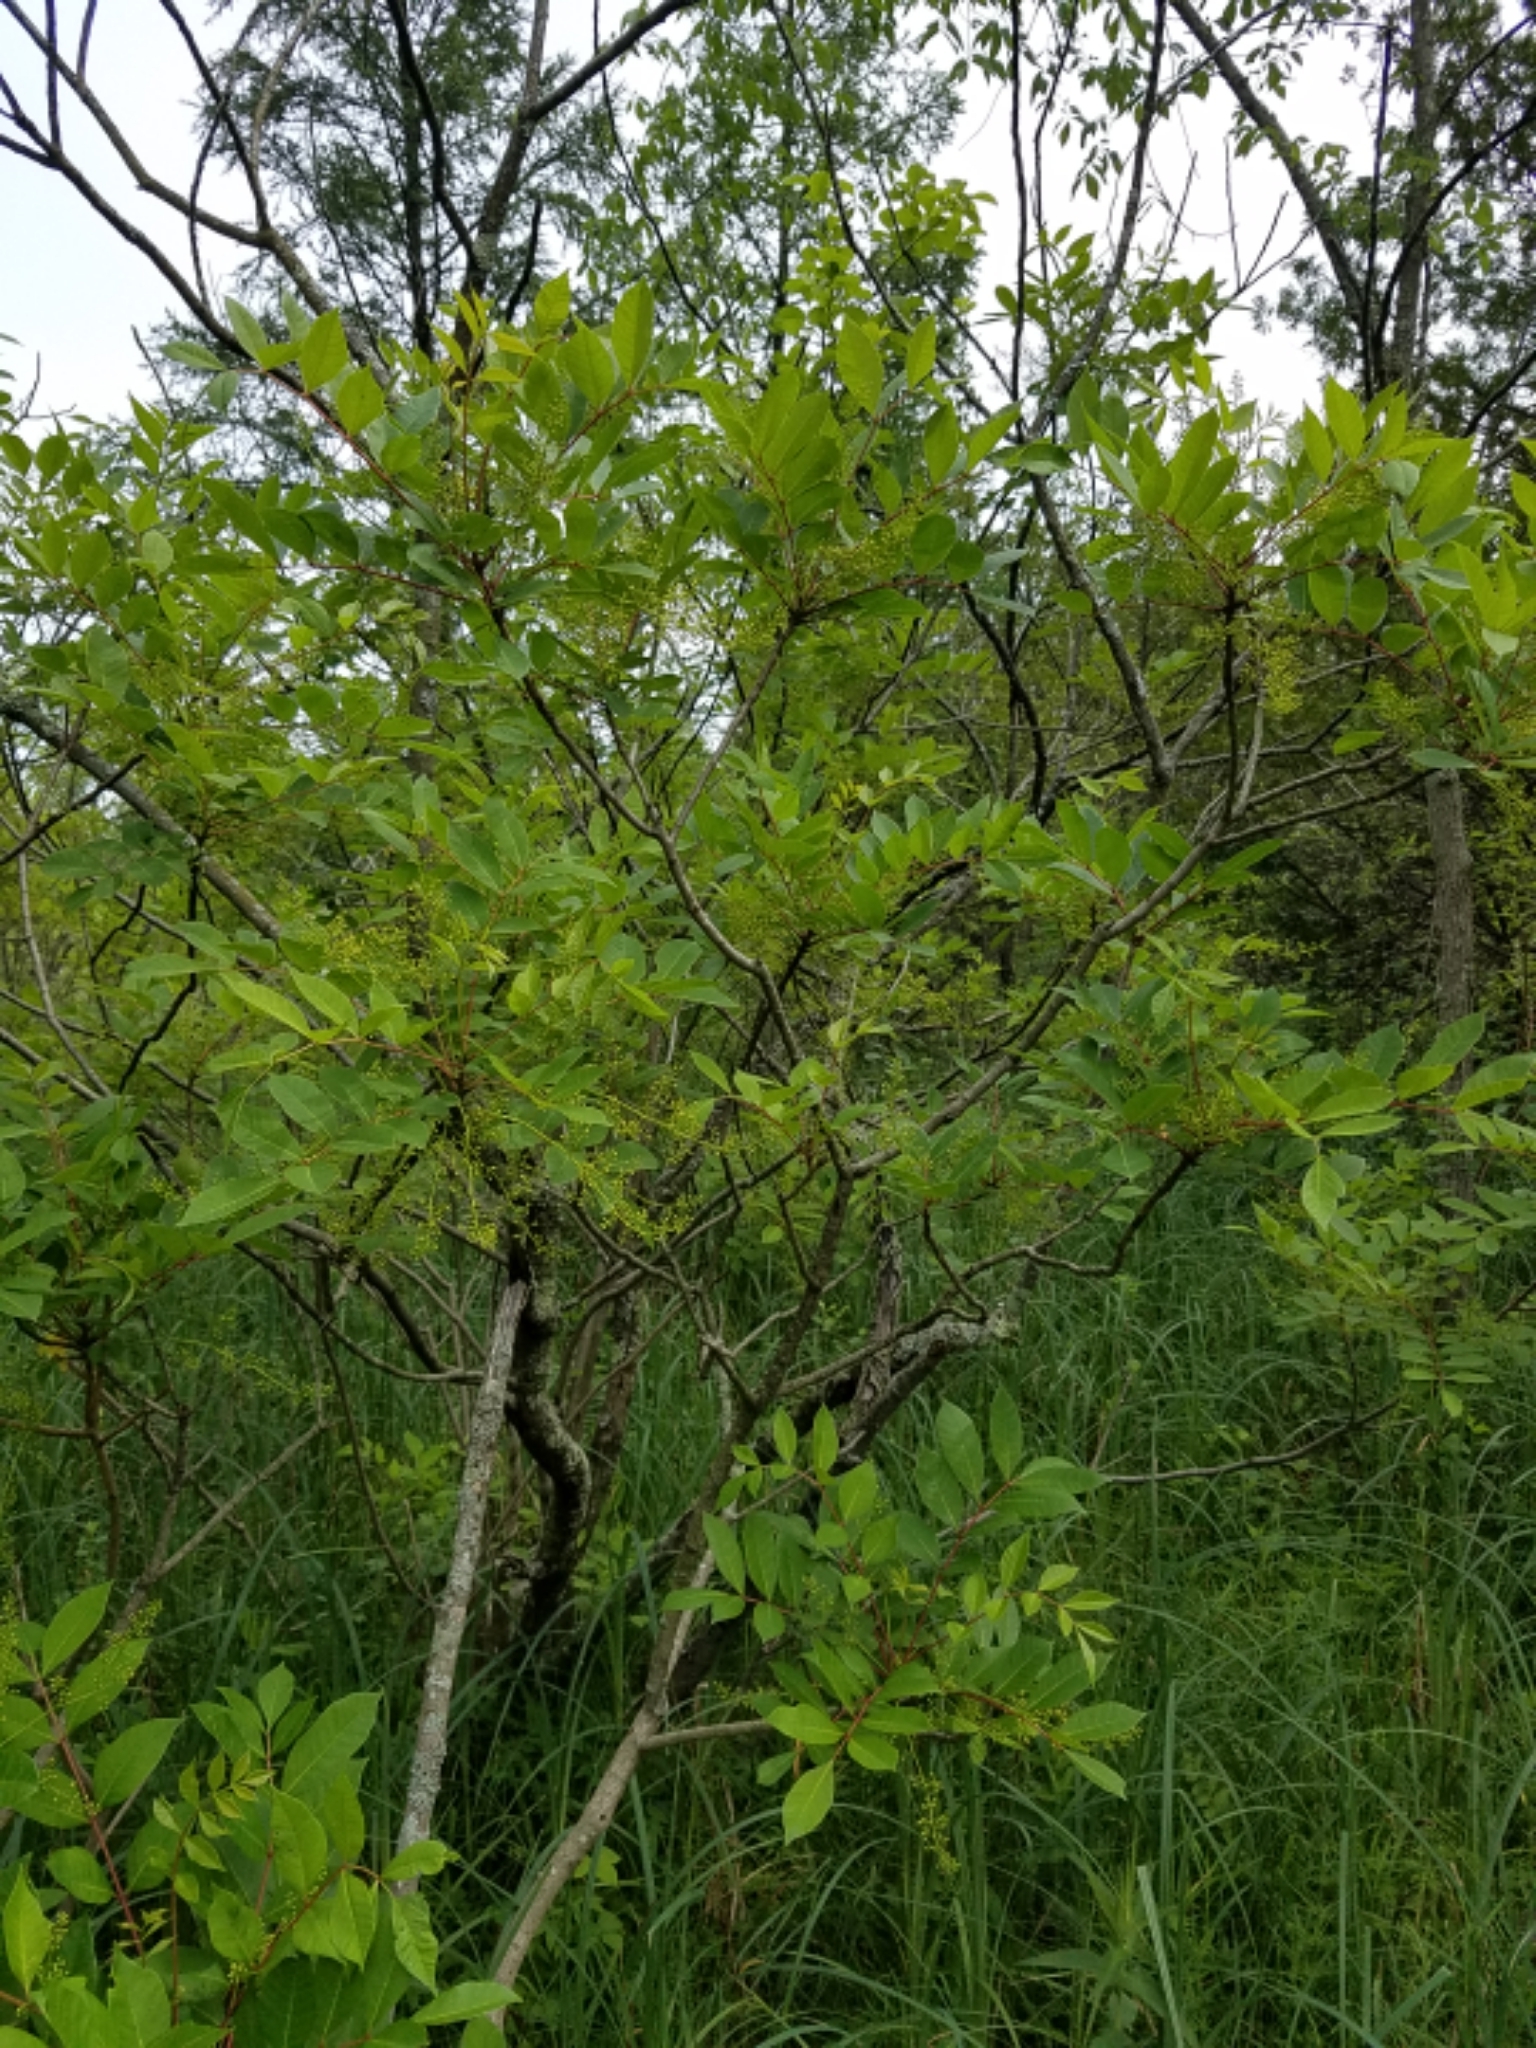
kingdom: Plantae
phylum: Tracheophyta
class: Magnoliopsida
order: Sapindales
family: Anacardiaceae
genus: Toxicodendron
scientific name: Toxicodendron vernix
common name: Poison sumac
